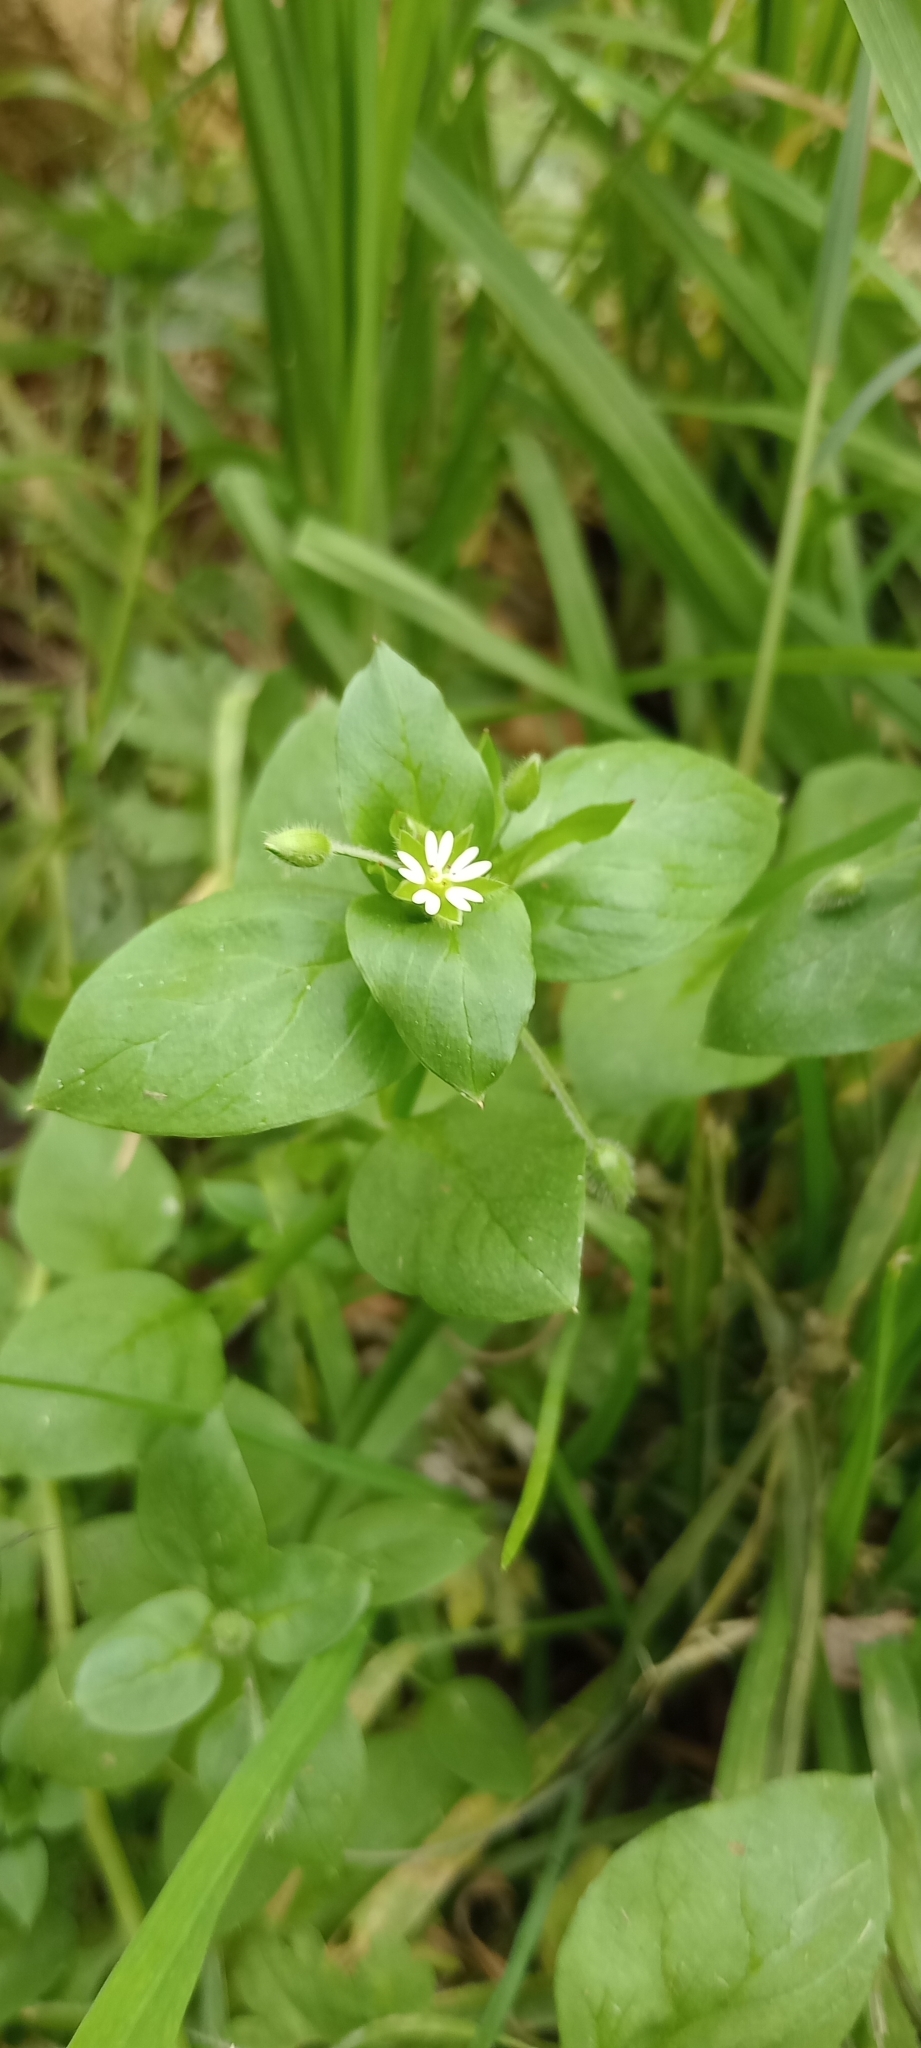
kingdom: Plantae
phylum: Tracheophyta
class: Magnoliopsida
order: Caryophyllales
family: Caryophyllaceae
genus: Stellaria
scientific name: Stellaria media
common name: Common chickweed
